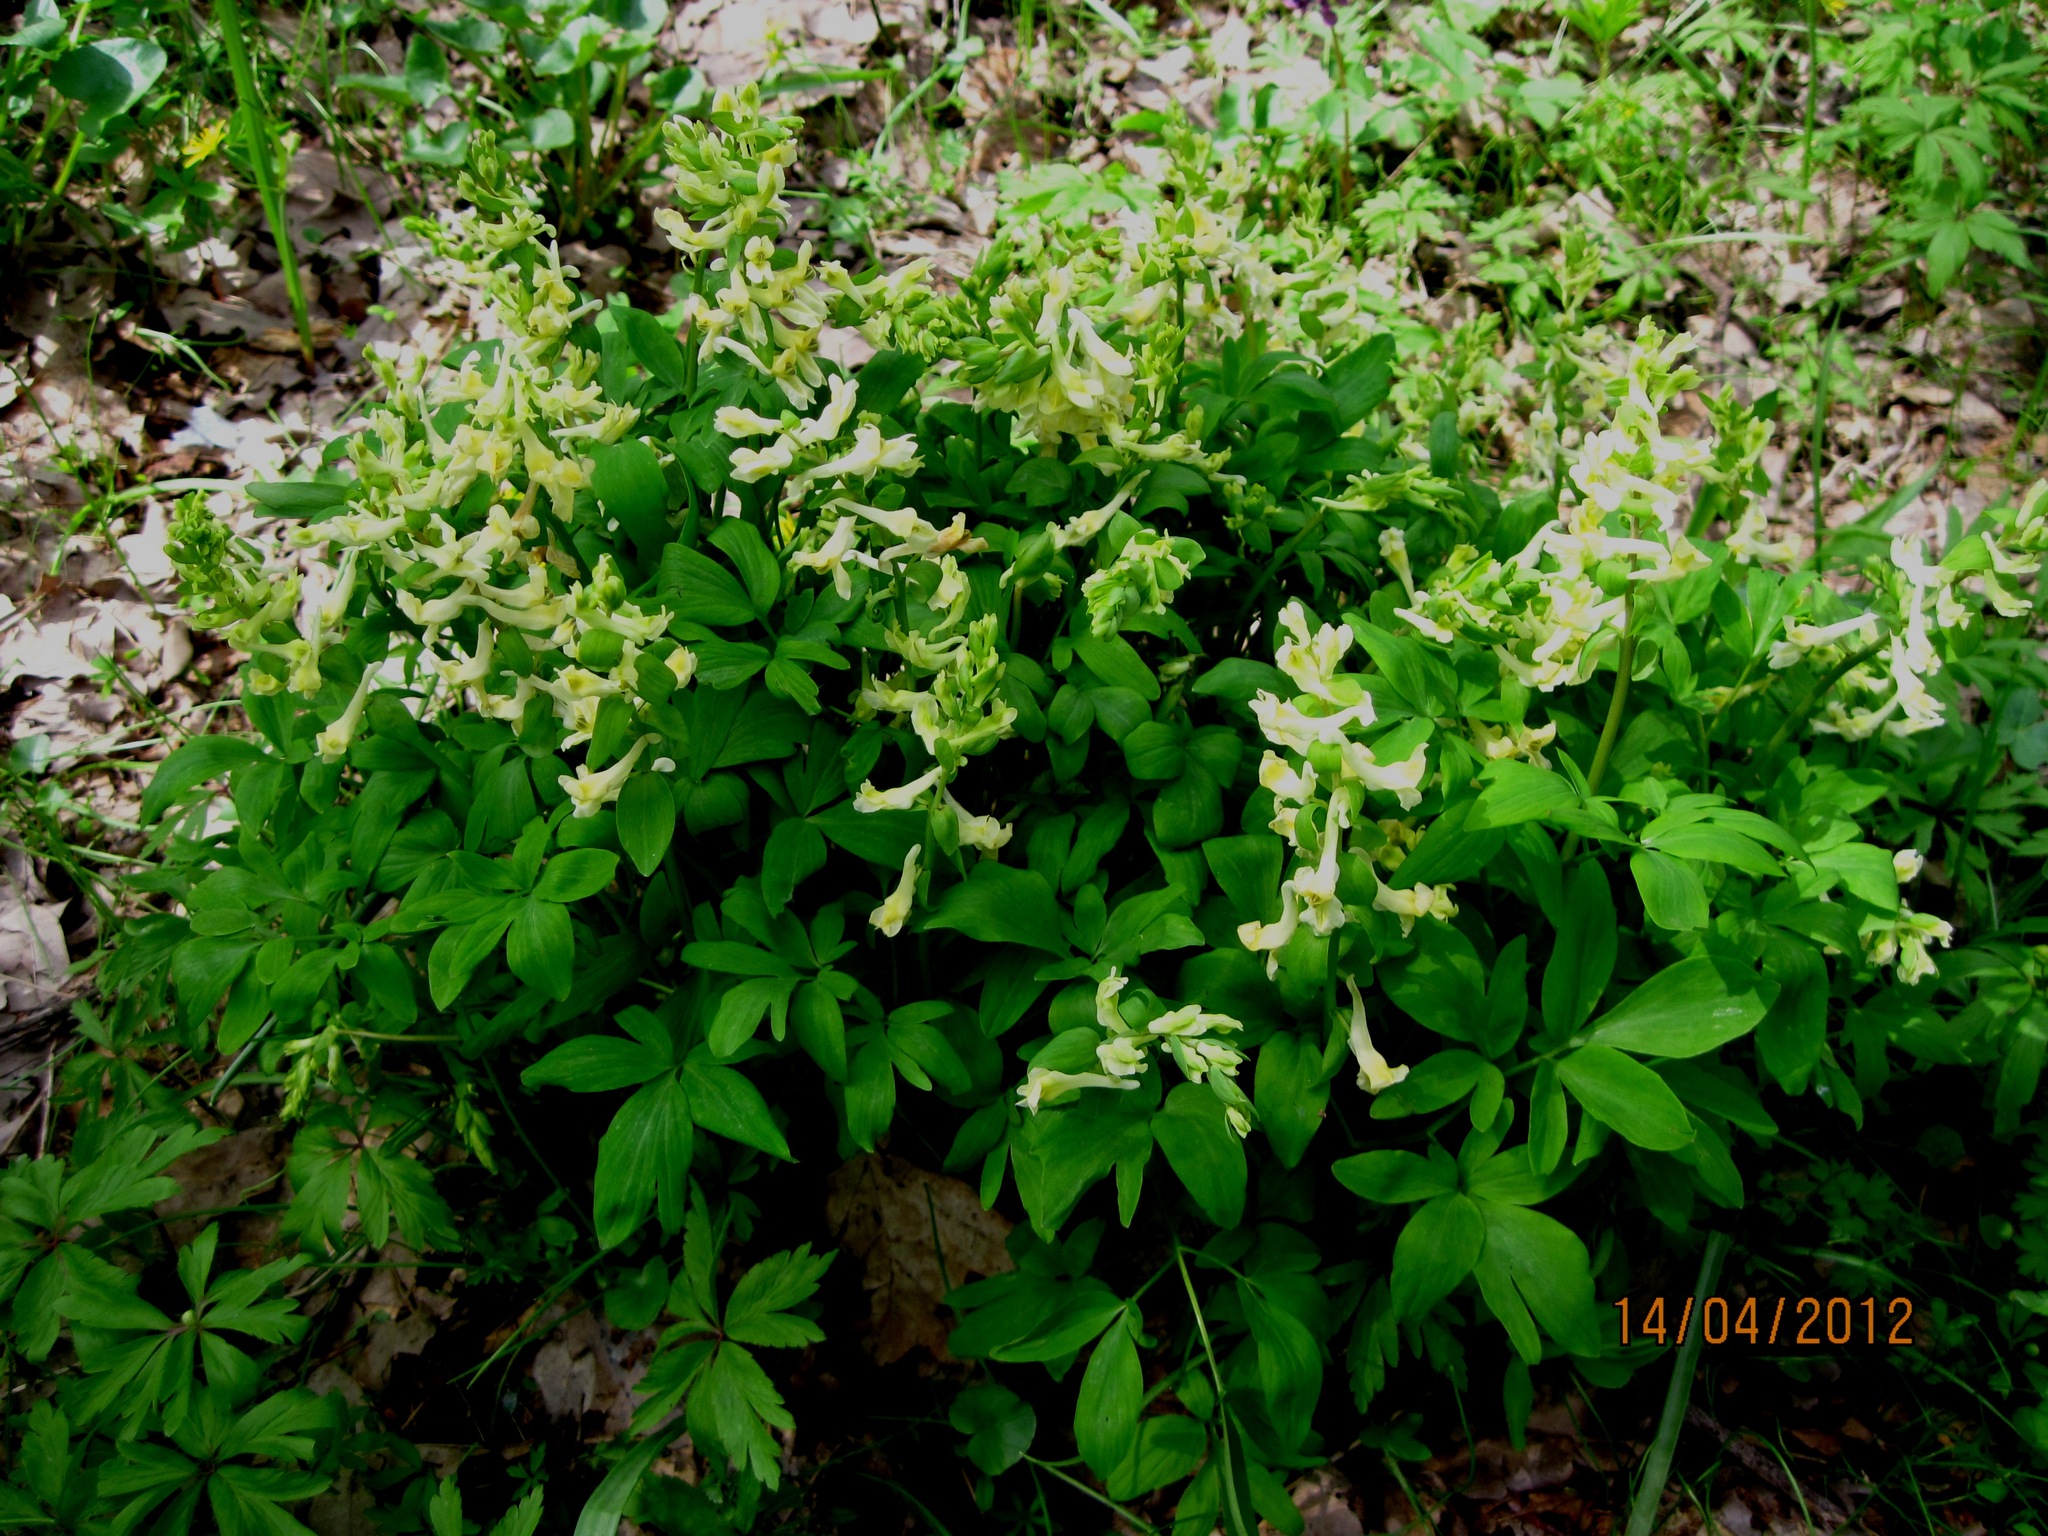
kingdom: Plantae
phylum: Tracheophyta
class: Magnoliopsida
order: Ranunculales
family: Papaveraceae
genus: Corydalis
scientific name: Corydalis cava
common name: Hollowroot
